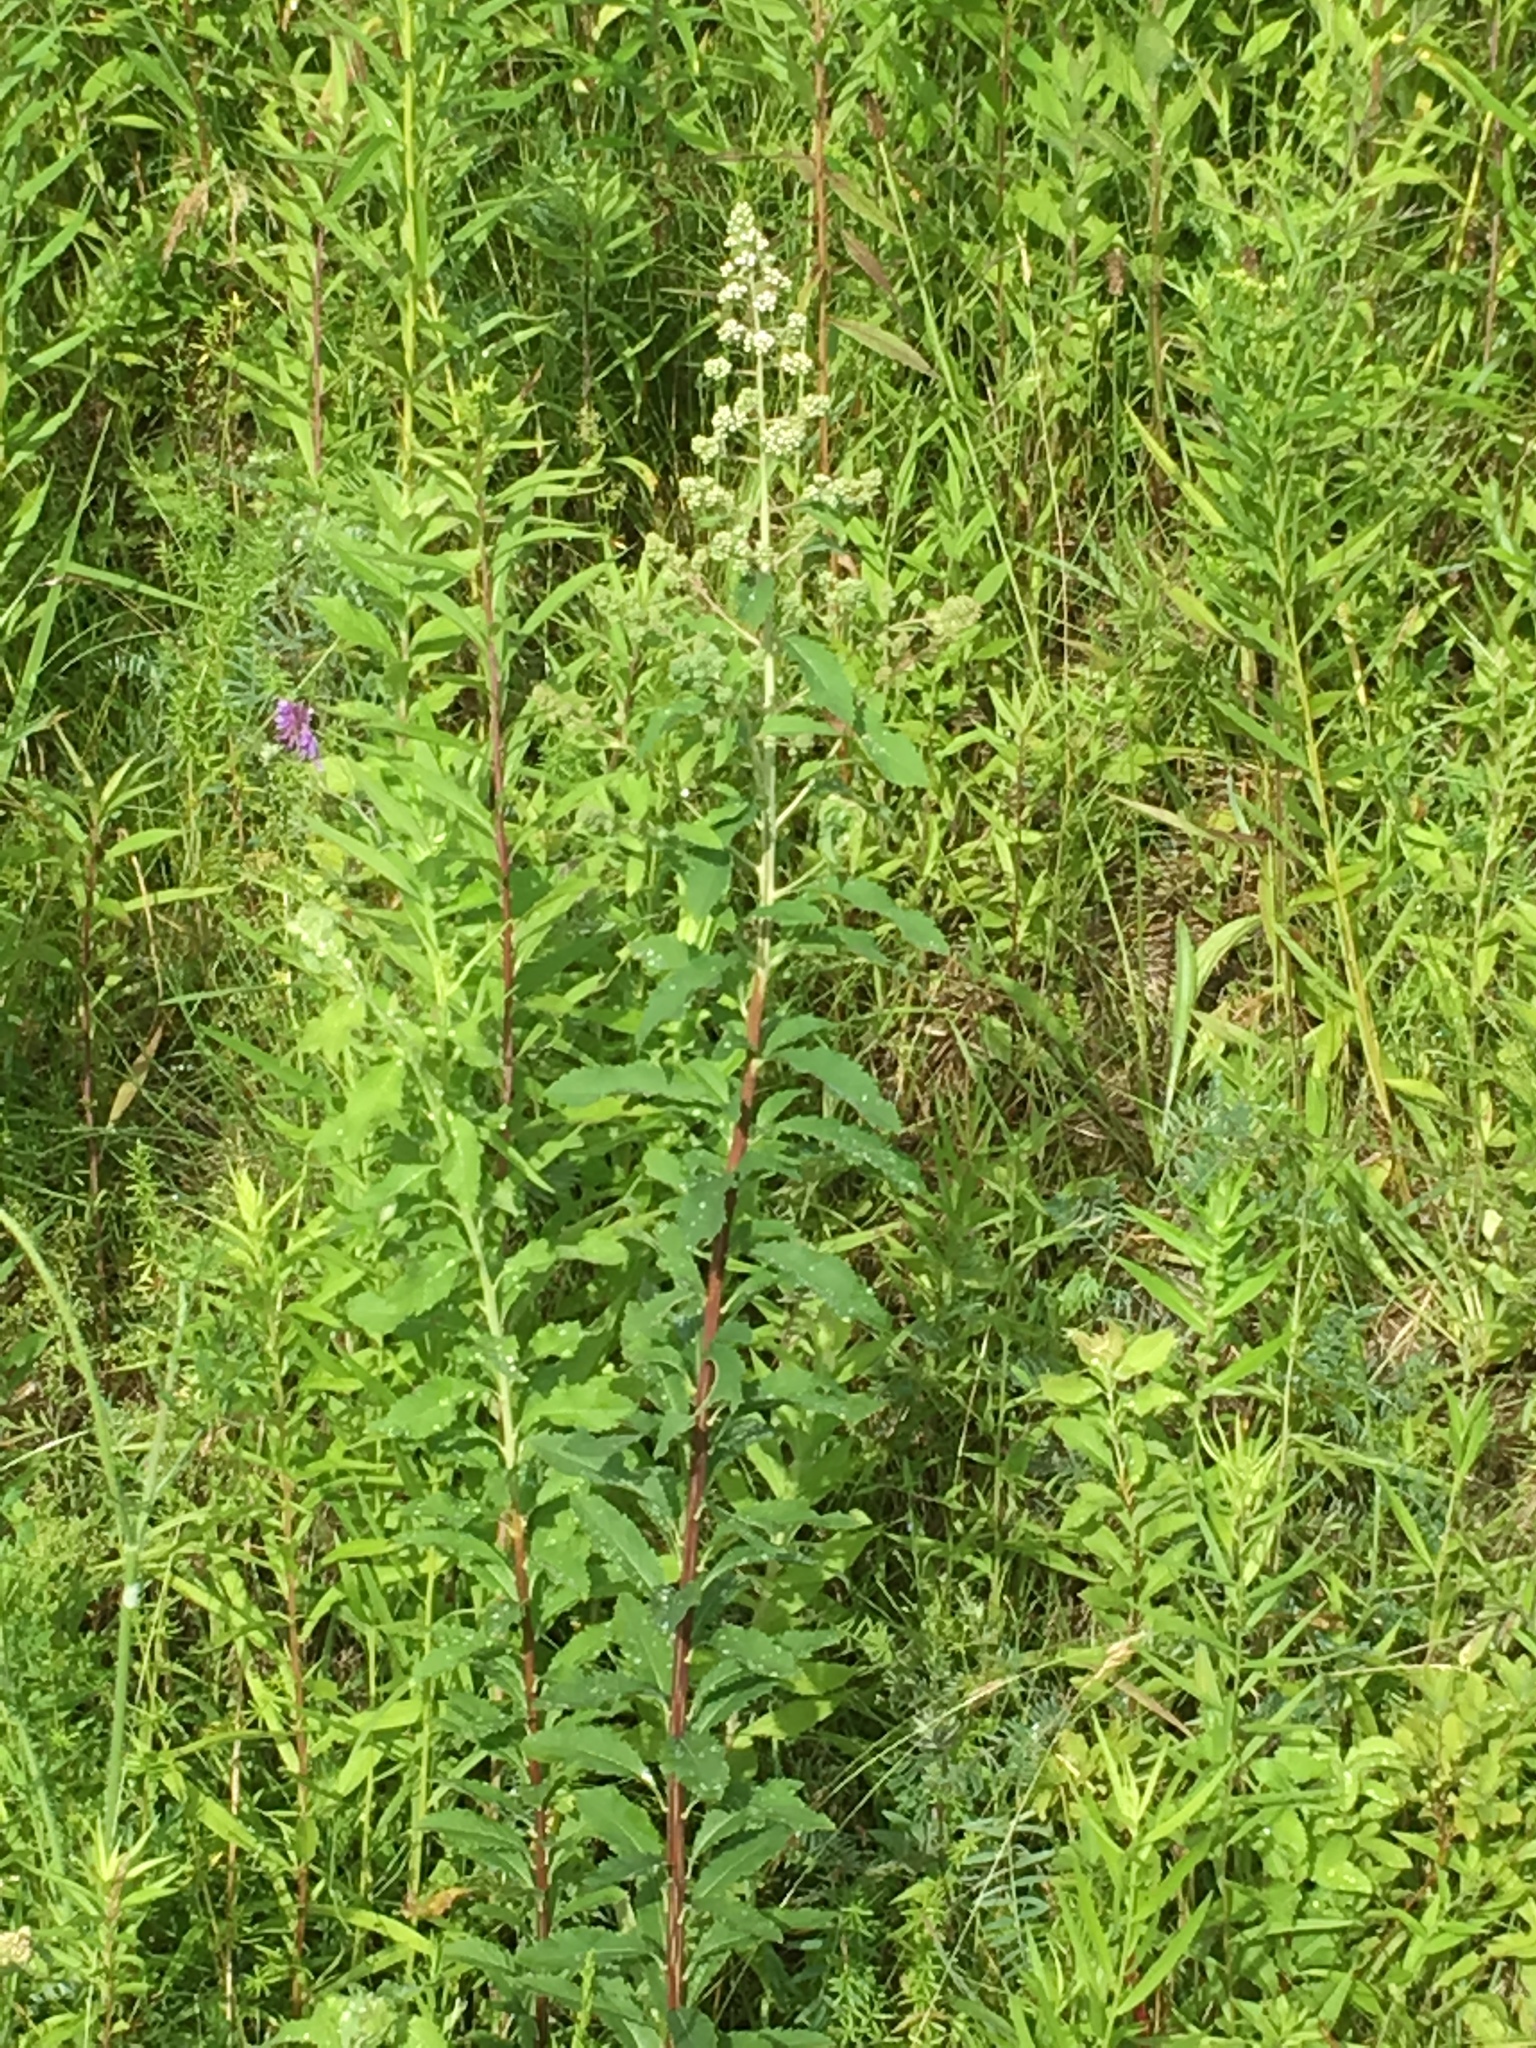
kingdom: Plantae
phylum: Tracheophyta
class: Magnoliopsida
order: Rosales
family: Rosaceae
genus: Spiraea
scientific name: Spiraea alba
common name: Pale bridewort
